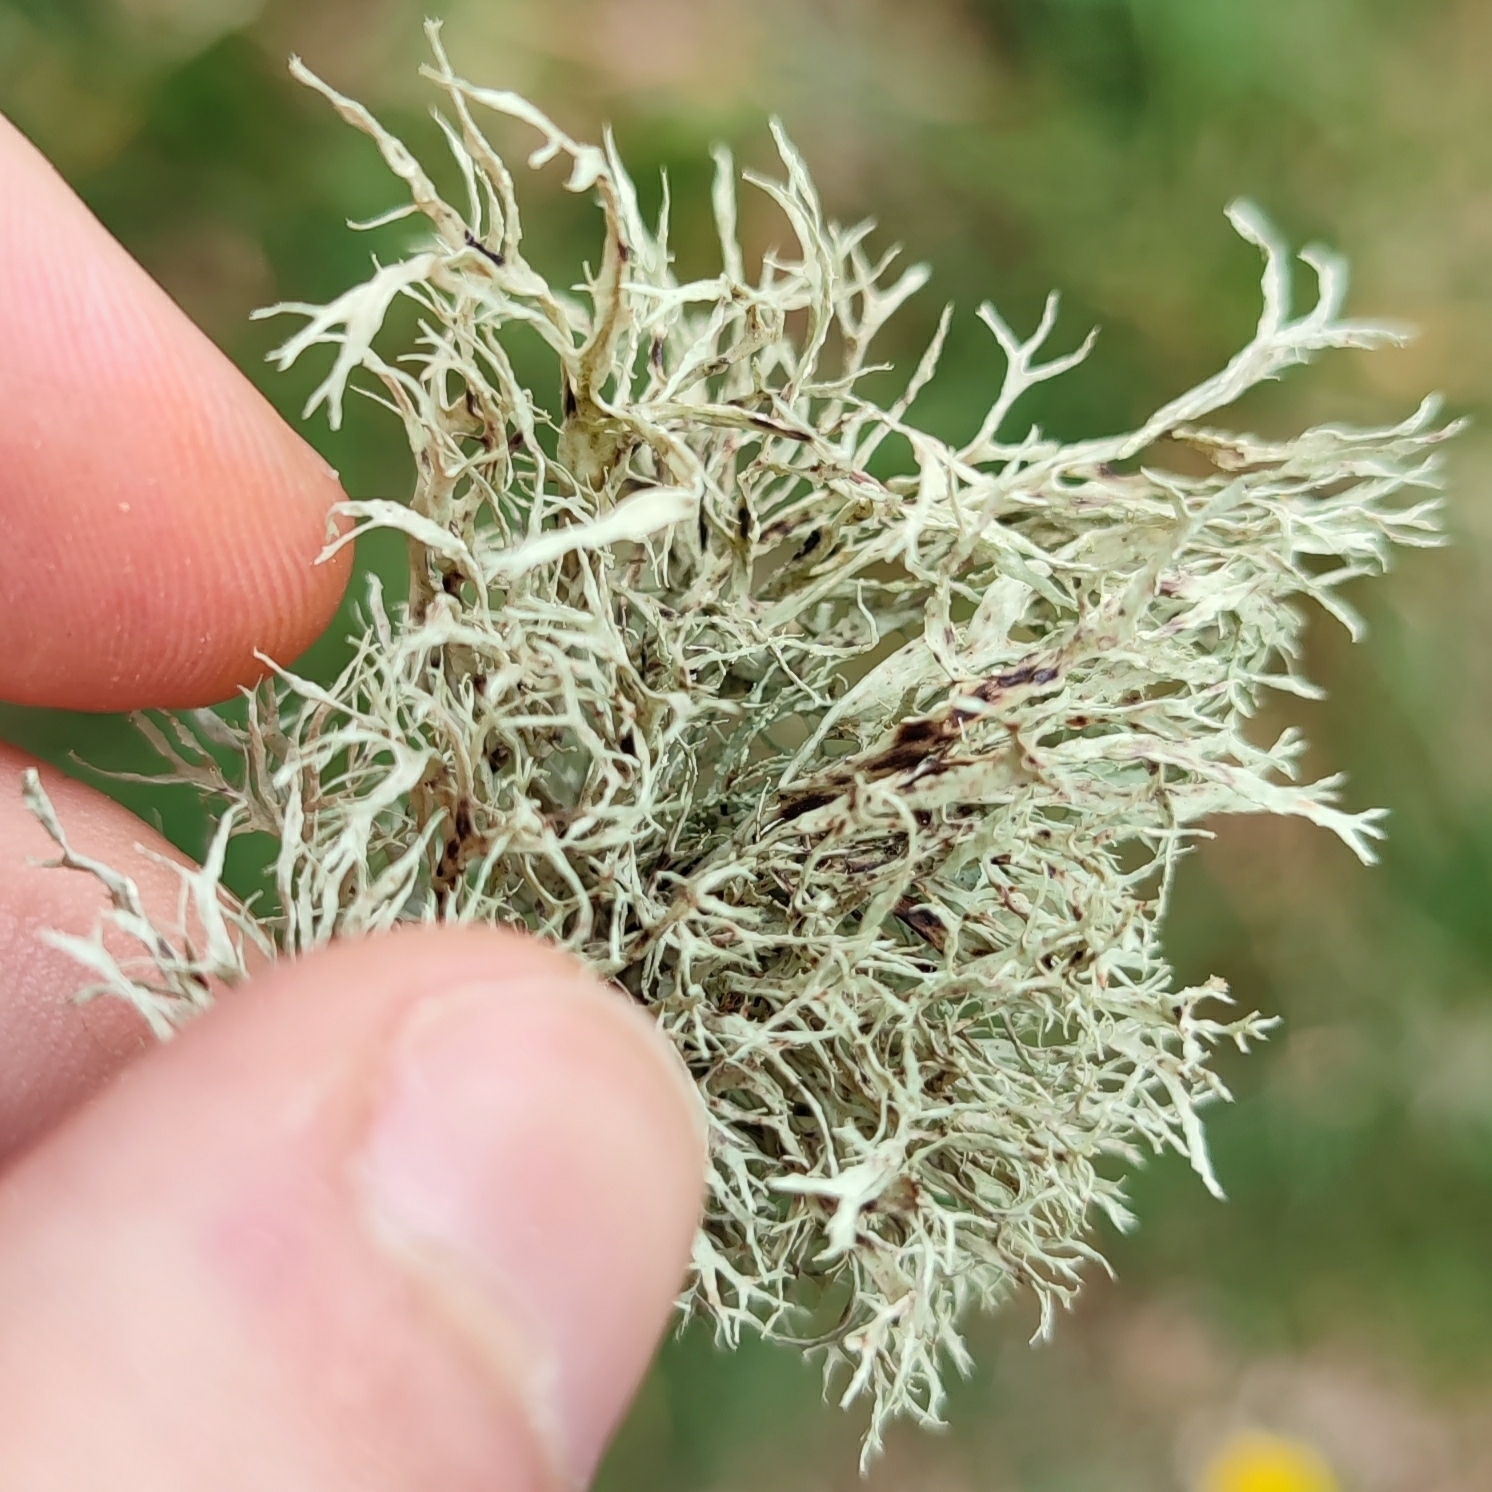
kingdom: Fungi
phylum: Ascomycota
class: Lecanoromycetes
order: Lecanorales
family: Ramalinaceae
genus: Ramalina
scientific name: Ramalina farinacea
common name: Farinose cartilage lichen
